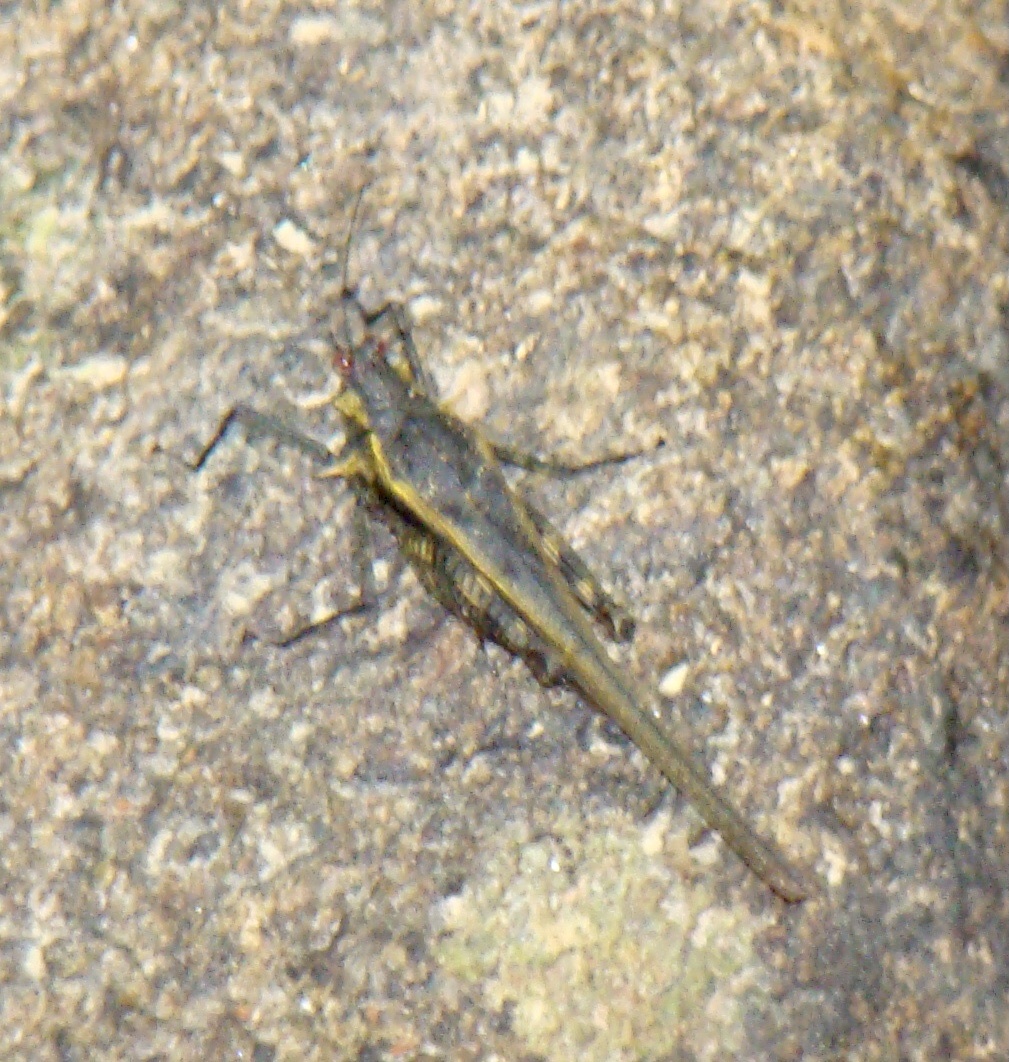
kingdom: Animalia
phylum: Arthropoda
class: Insecta
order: Orthoptera
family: Tetrigidae
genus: Scelimena
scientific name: Scelimena bellula
